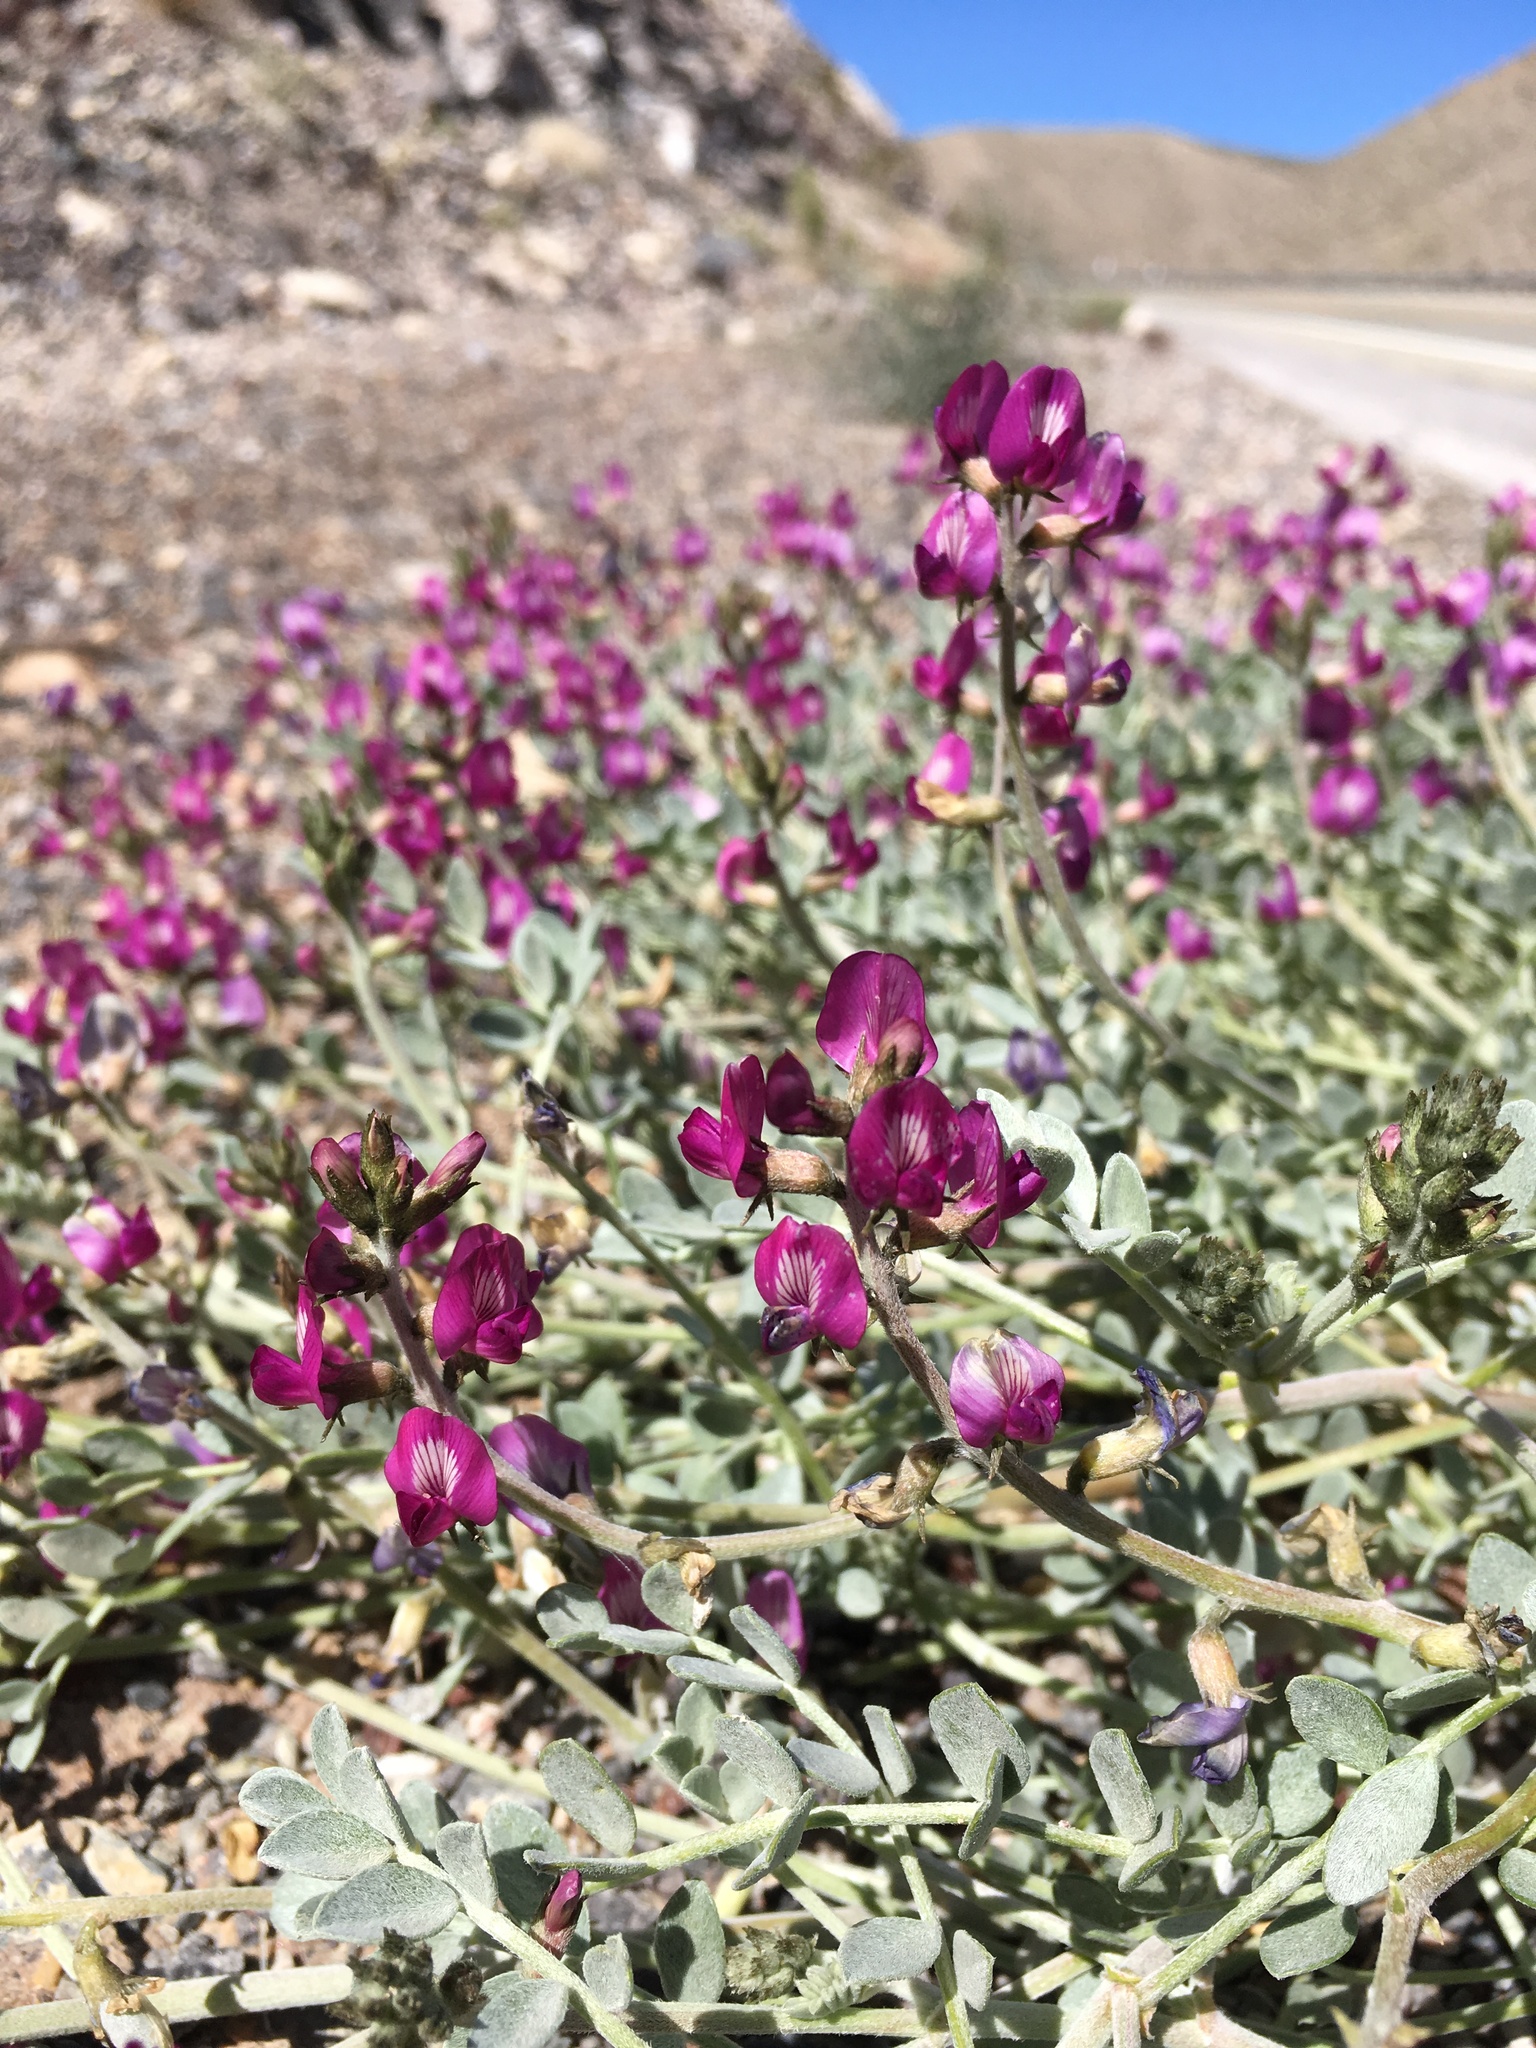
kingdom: Plantae
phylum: Tracheophyta
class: Magnoliopsida
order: Fabales
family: Fabaceae
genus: Astragalus
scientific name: Astragalus mohavensis
